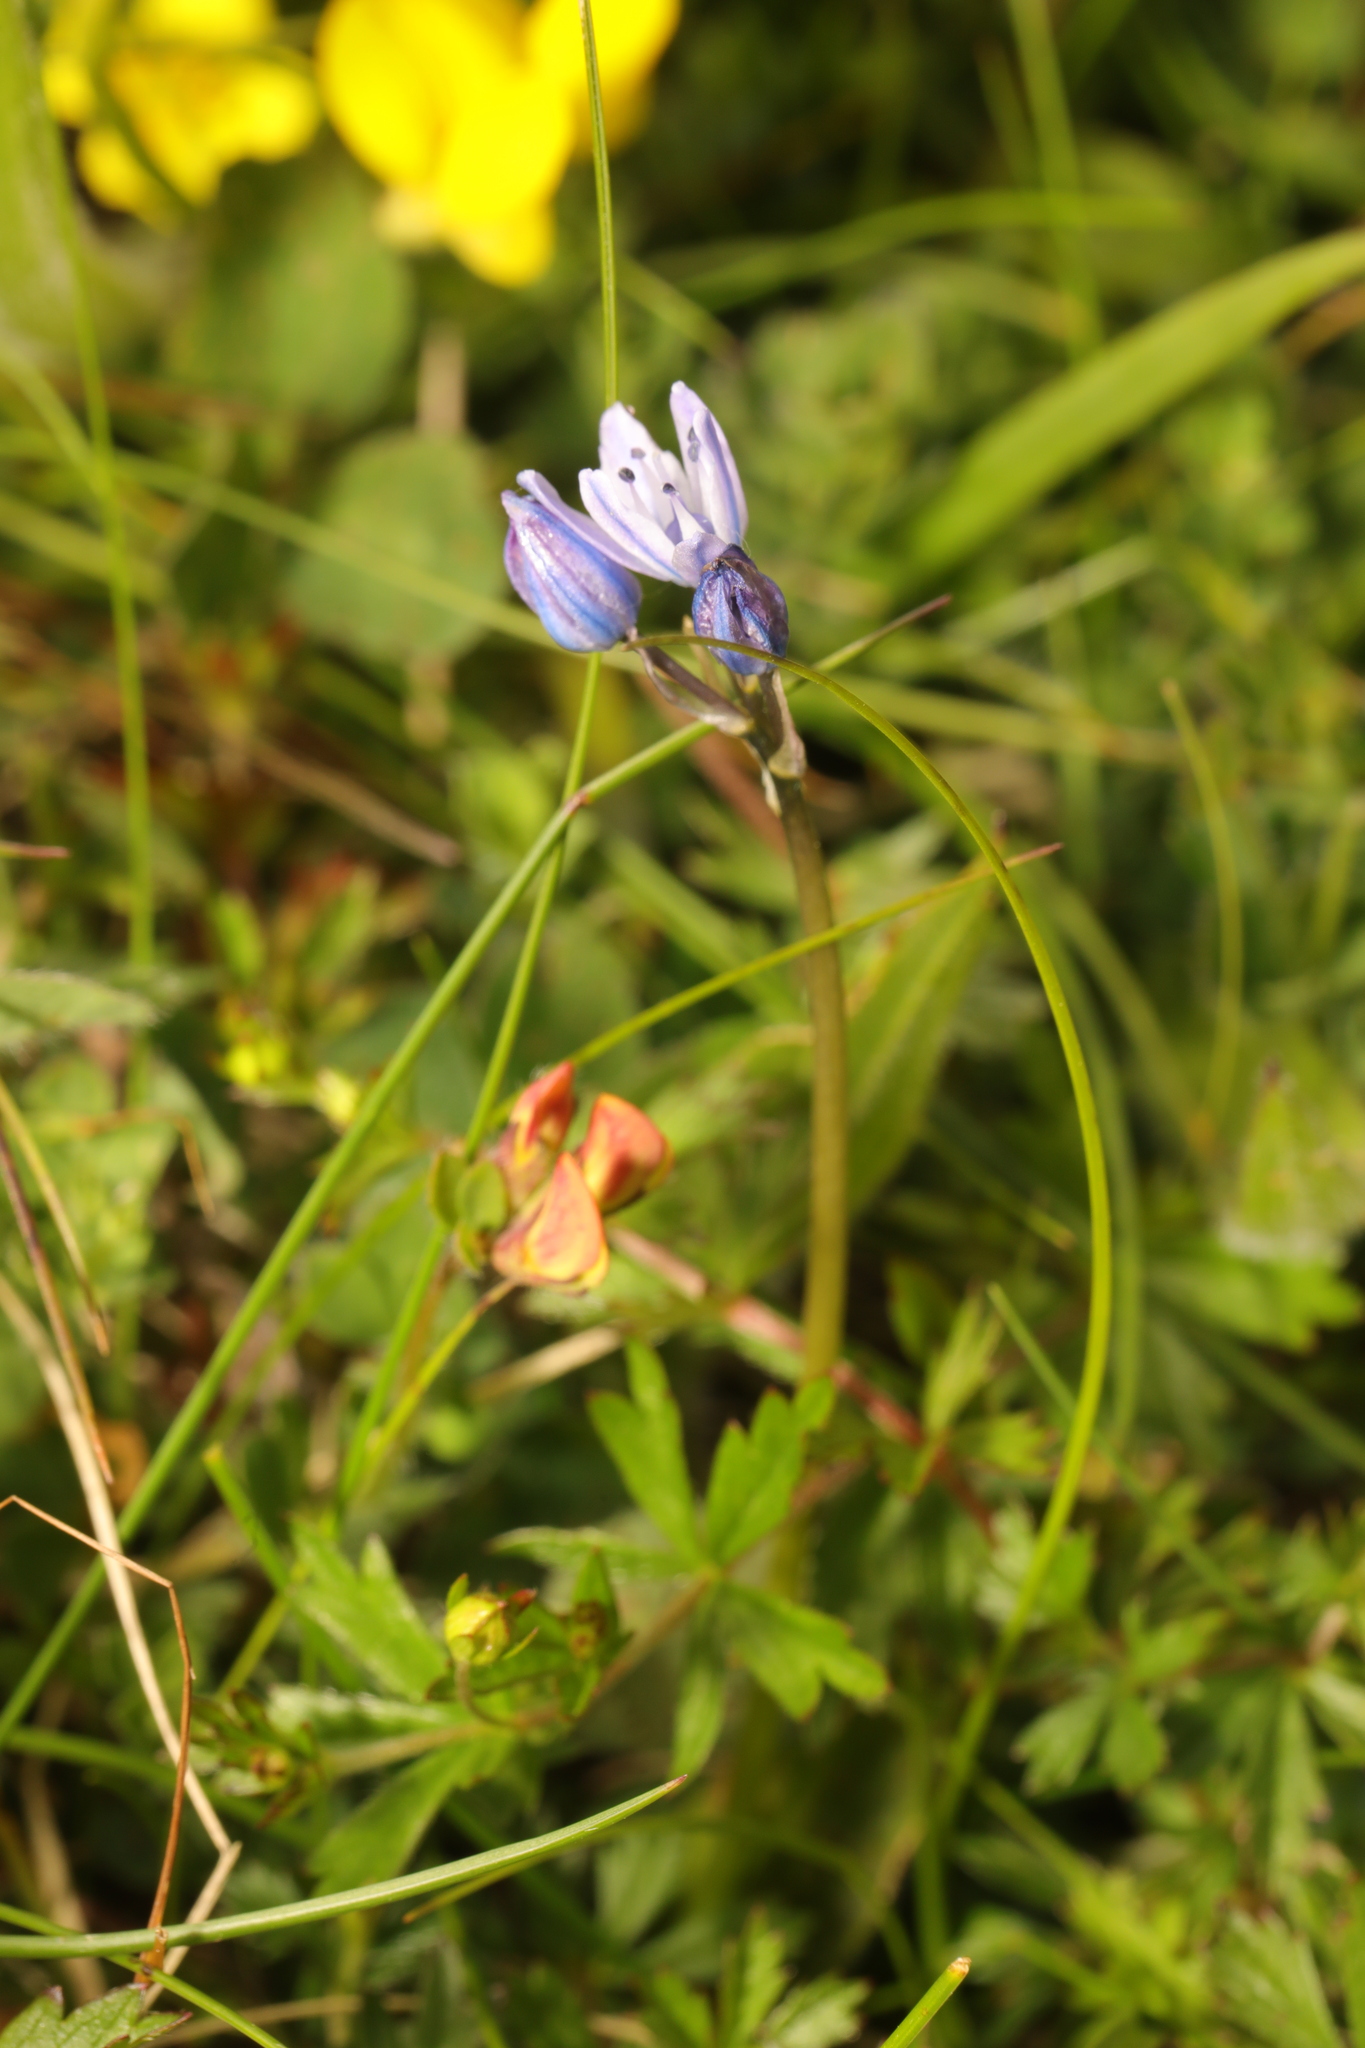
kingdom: Plantae
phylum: Tracheophyta
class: Liliopsida
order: Asparagales
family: Asparagaceae
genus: Scilla
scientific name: Scilla verna
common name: Spring squill
